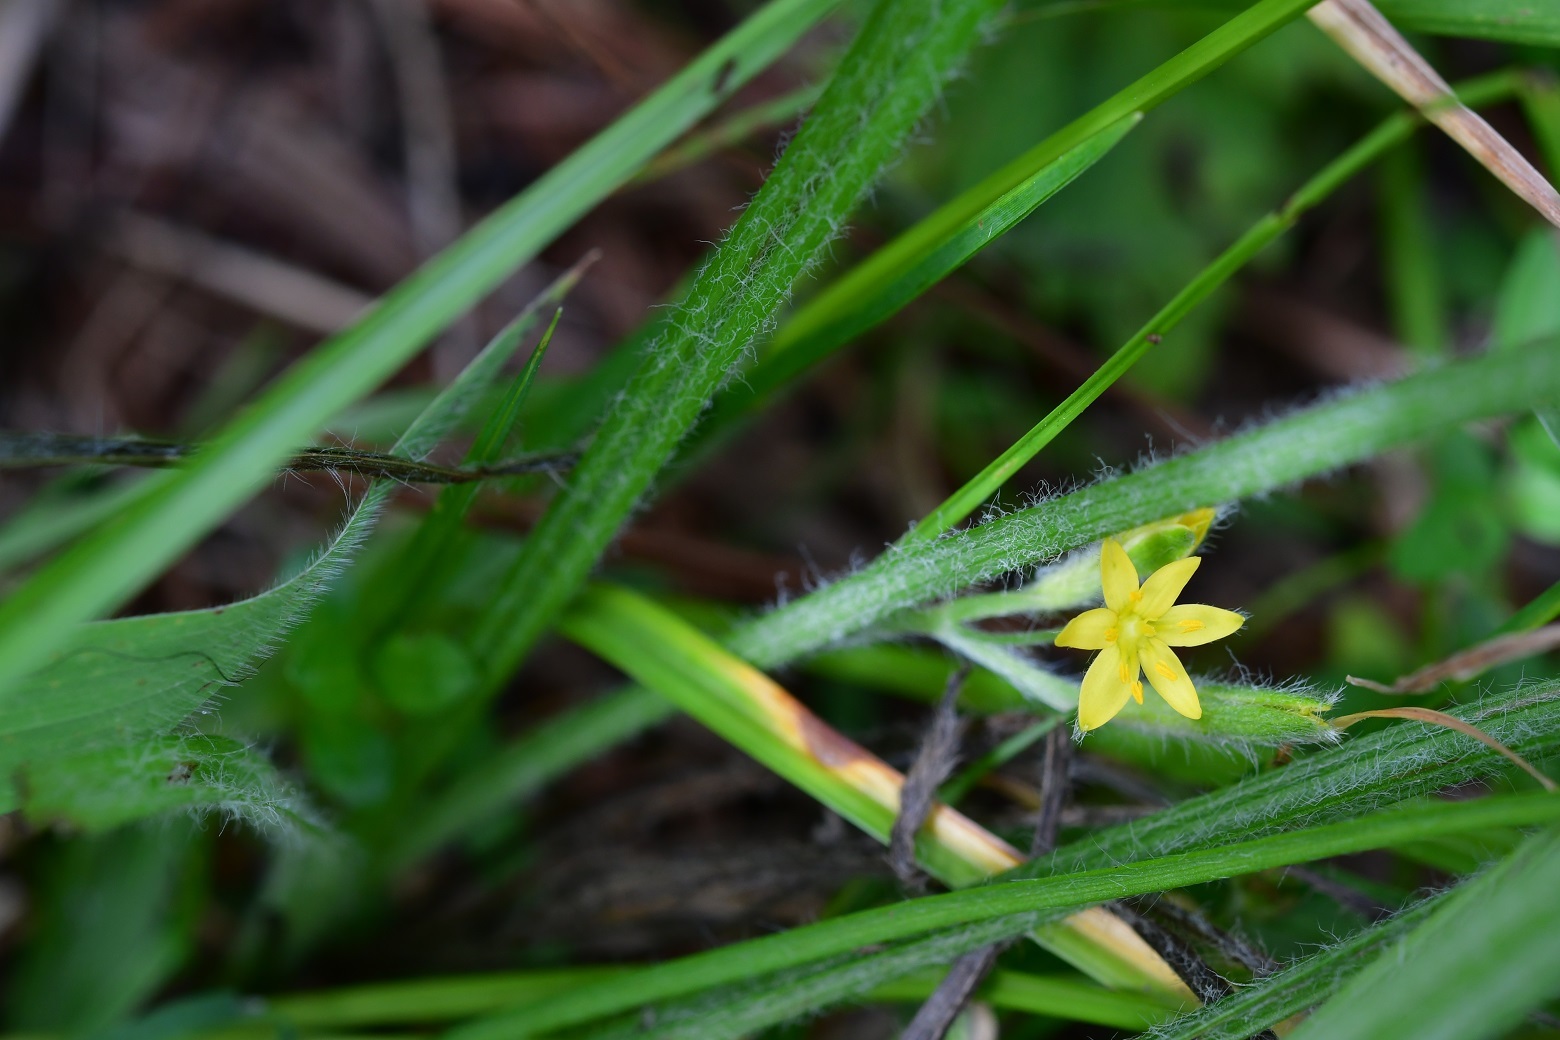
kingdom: Plantae
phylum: Tracheophyta
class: Liliopsida
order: Asparagales
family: Hypoxidaceae
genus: Hypoxis
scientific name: Hypoxis decumbens
